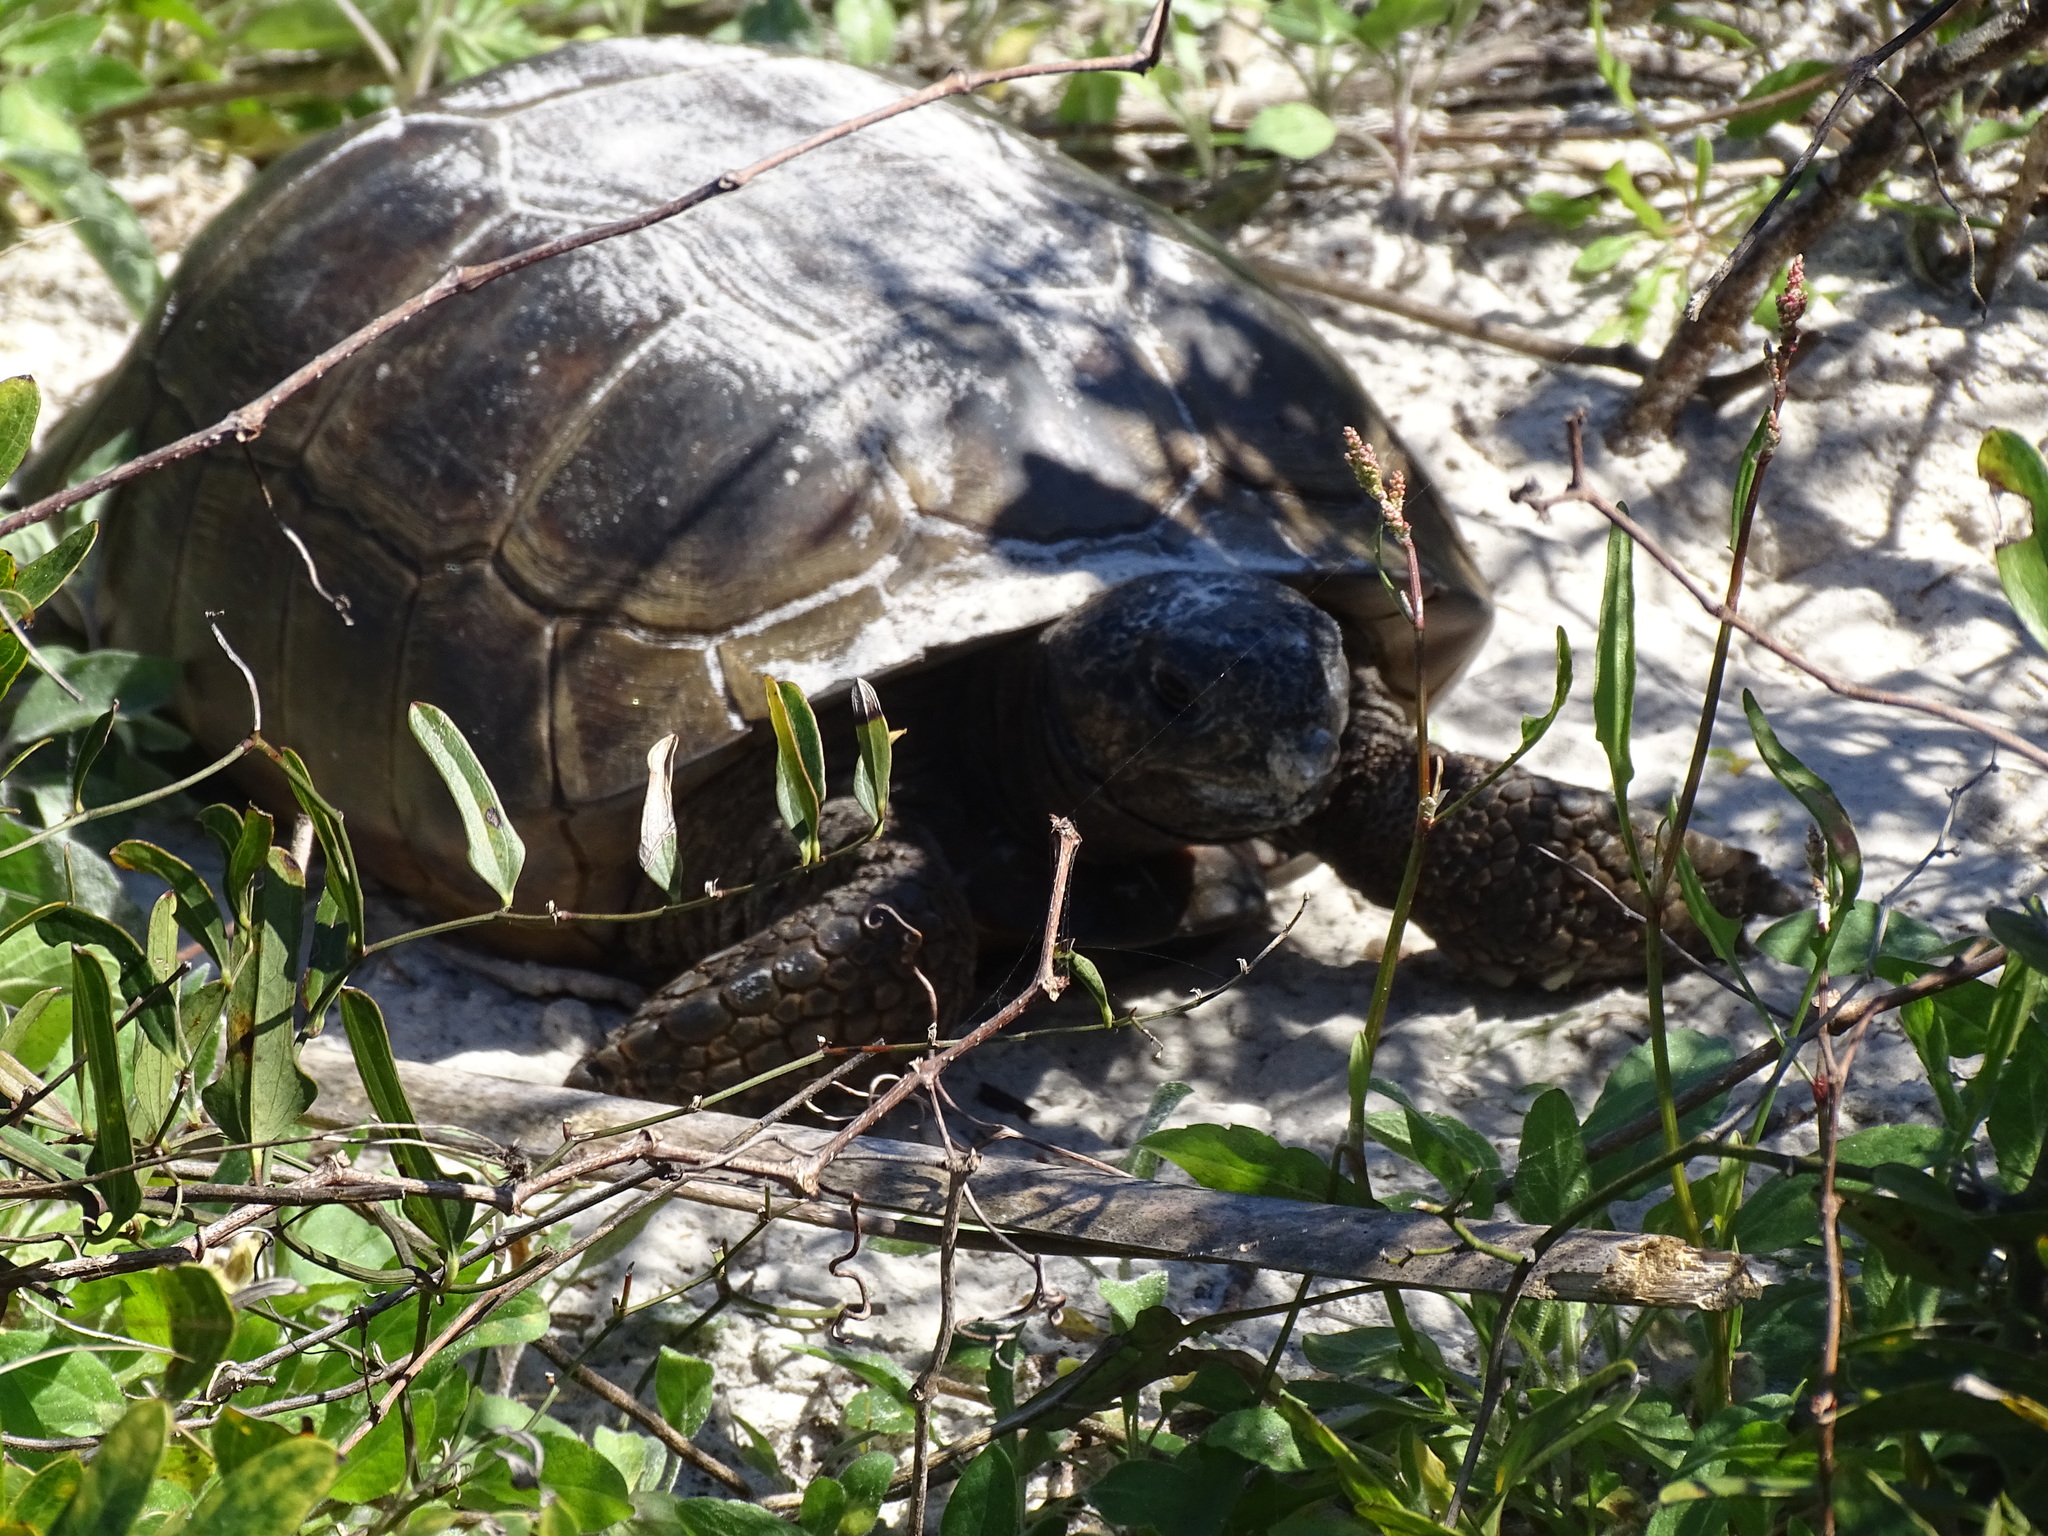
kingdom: Animalia
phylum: Chordata
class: Testudines
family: Testudinidae
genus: Gopherus
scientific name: Gopherus polyphemus
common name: Florida gopher tortoise
